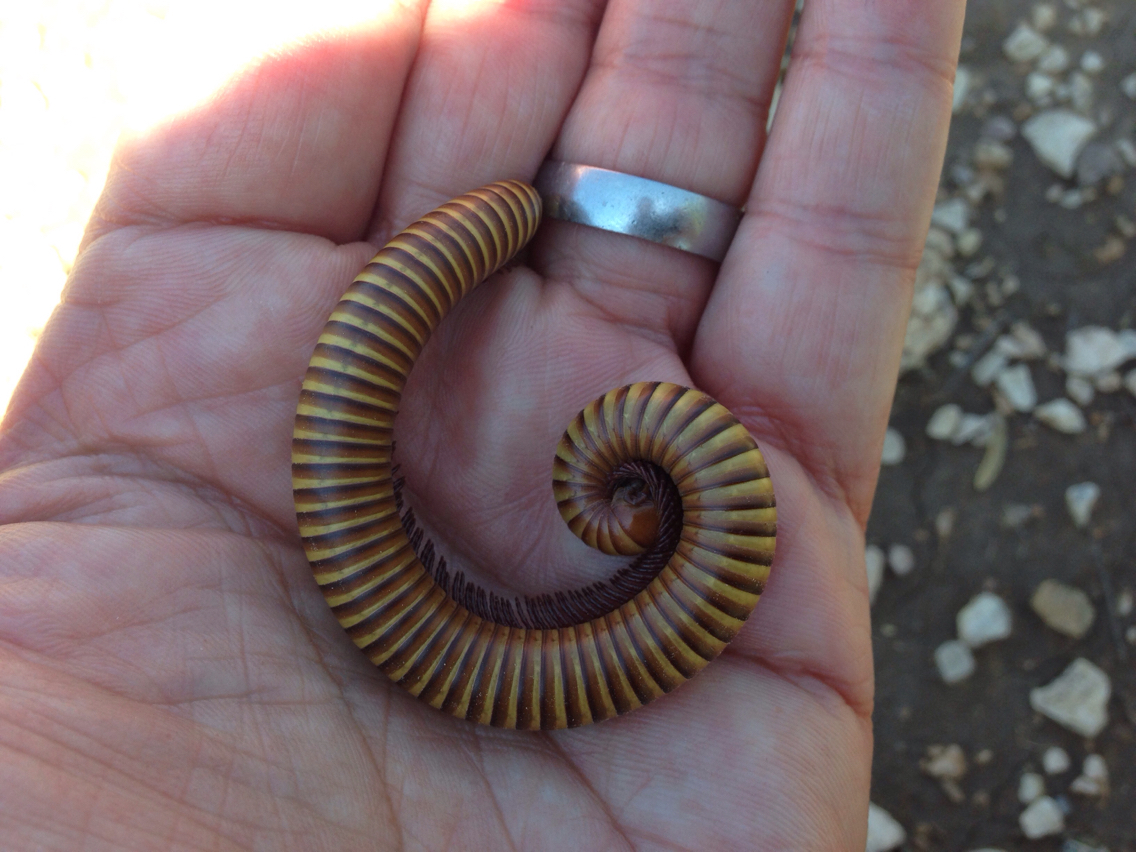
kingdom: Animalia
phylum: Arthropoda
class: Diplopoda
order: Spirostreptida
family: Spirostreptidae
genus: Orthoporus
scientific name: Orthoporus ornatus
